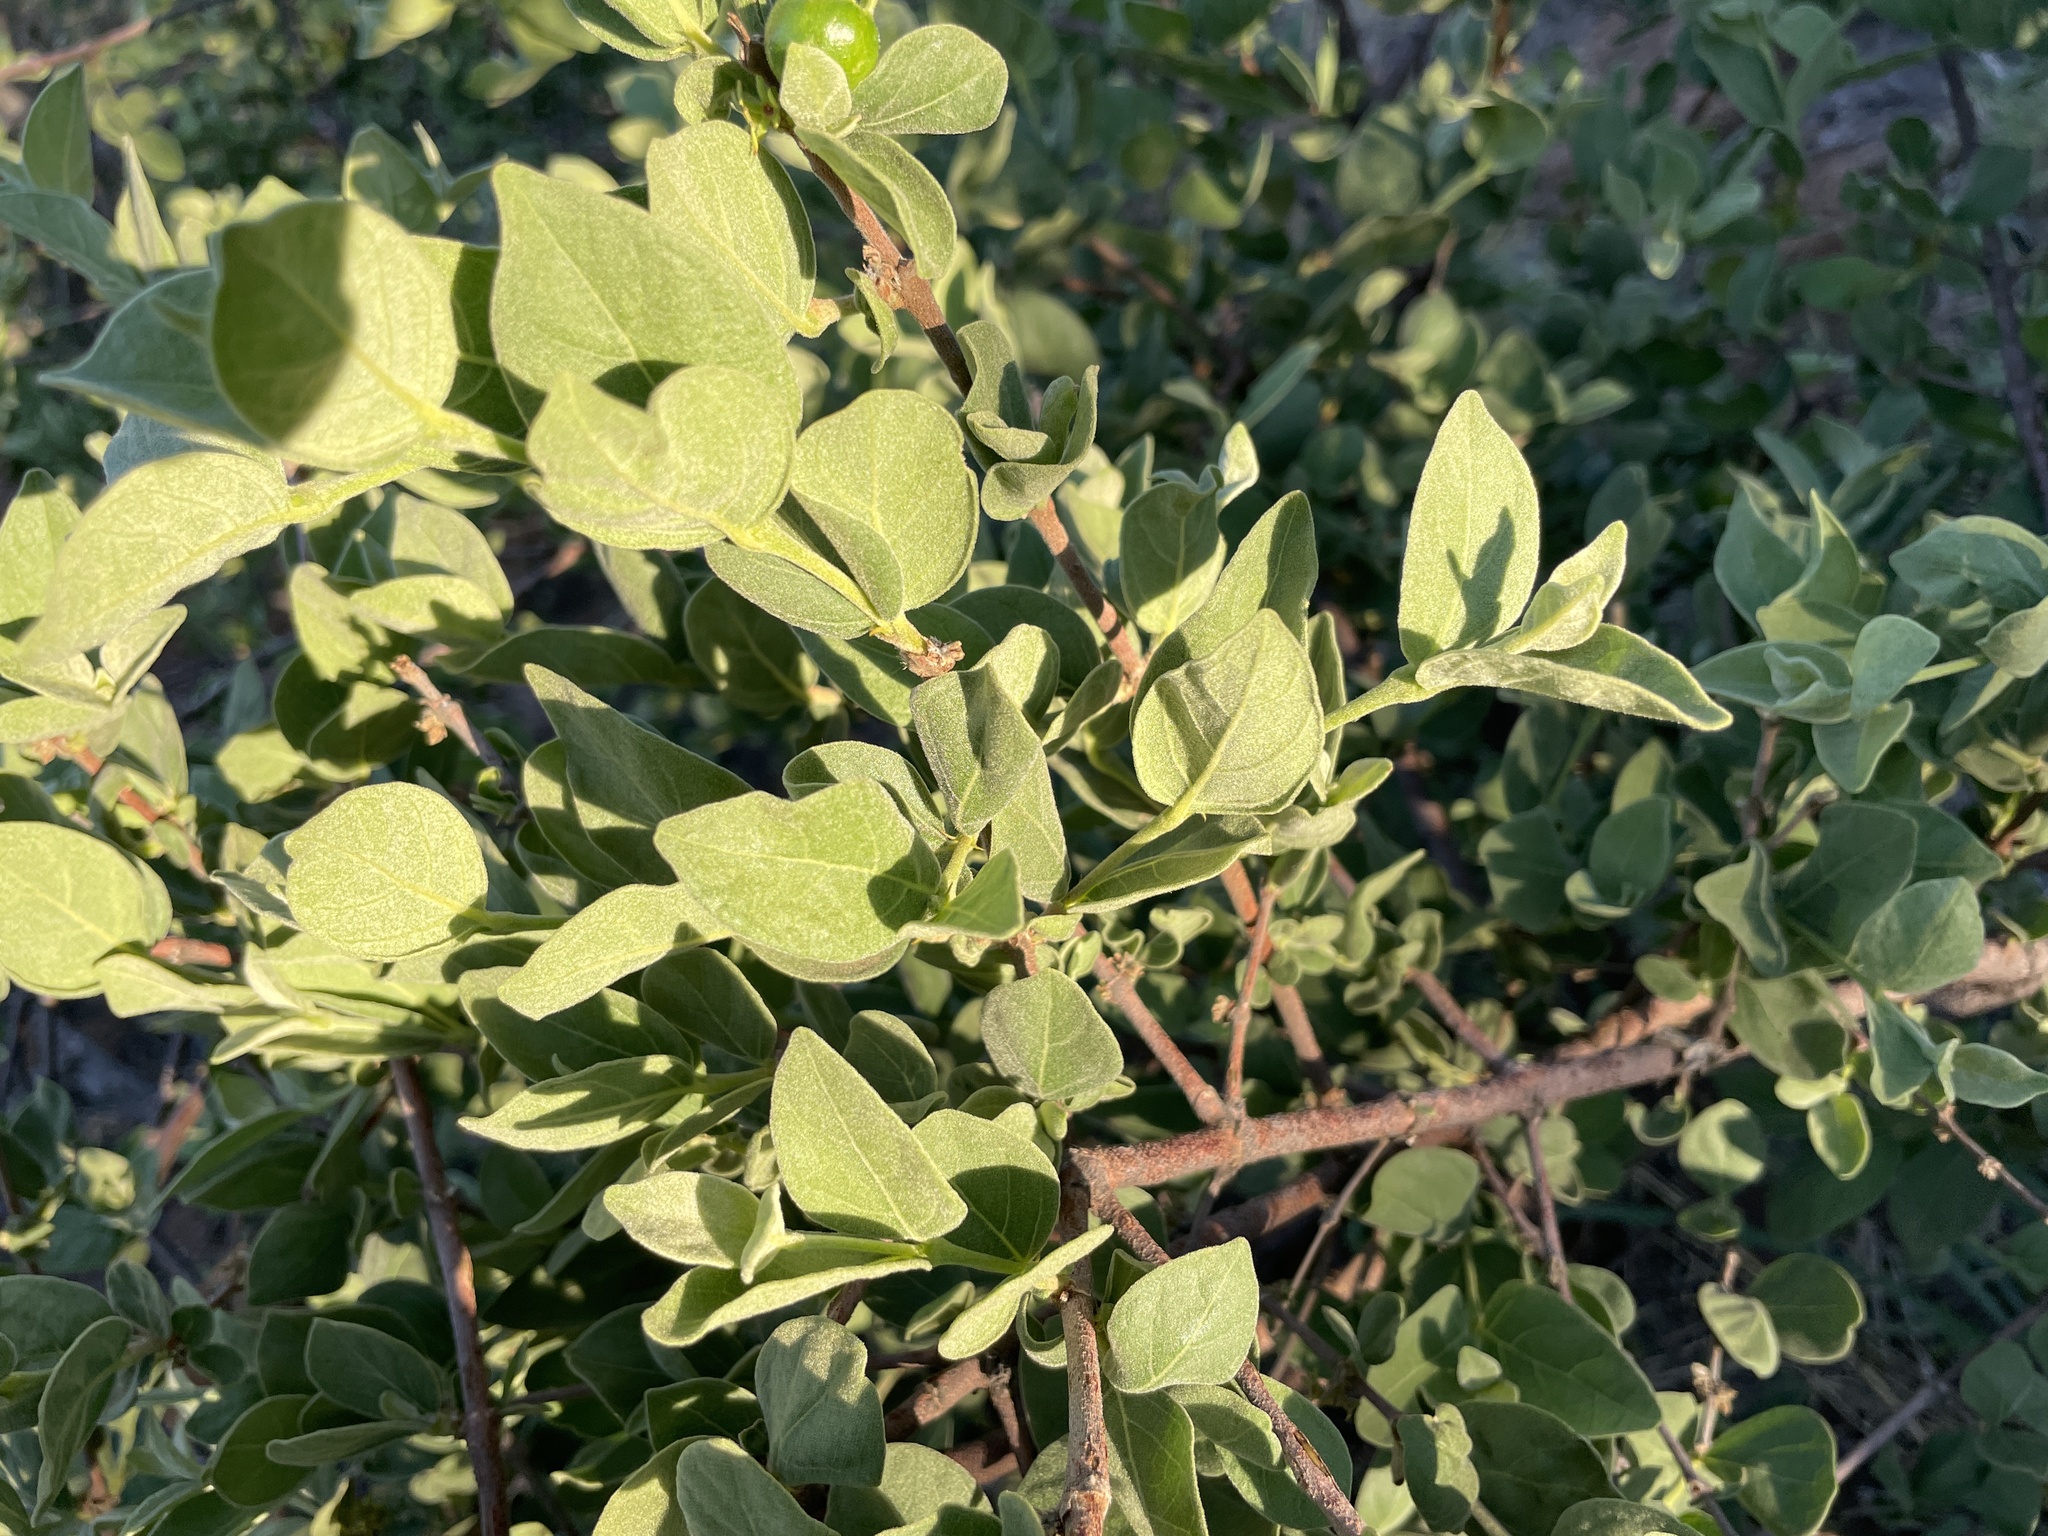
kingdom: Plantae
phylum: Tracheophyta
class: Magnoliopsida
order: Ericales
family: Sapotaceae
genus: Englerophytum
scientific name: Englerophytum magalismontanum
